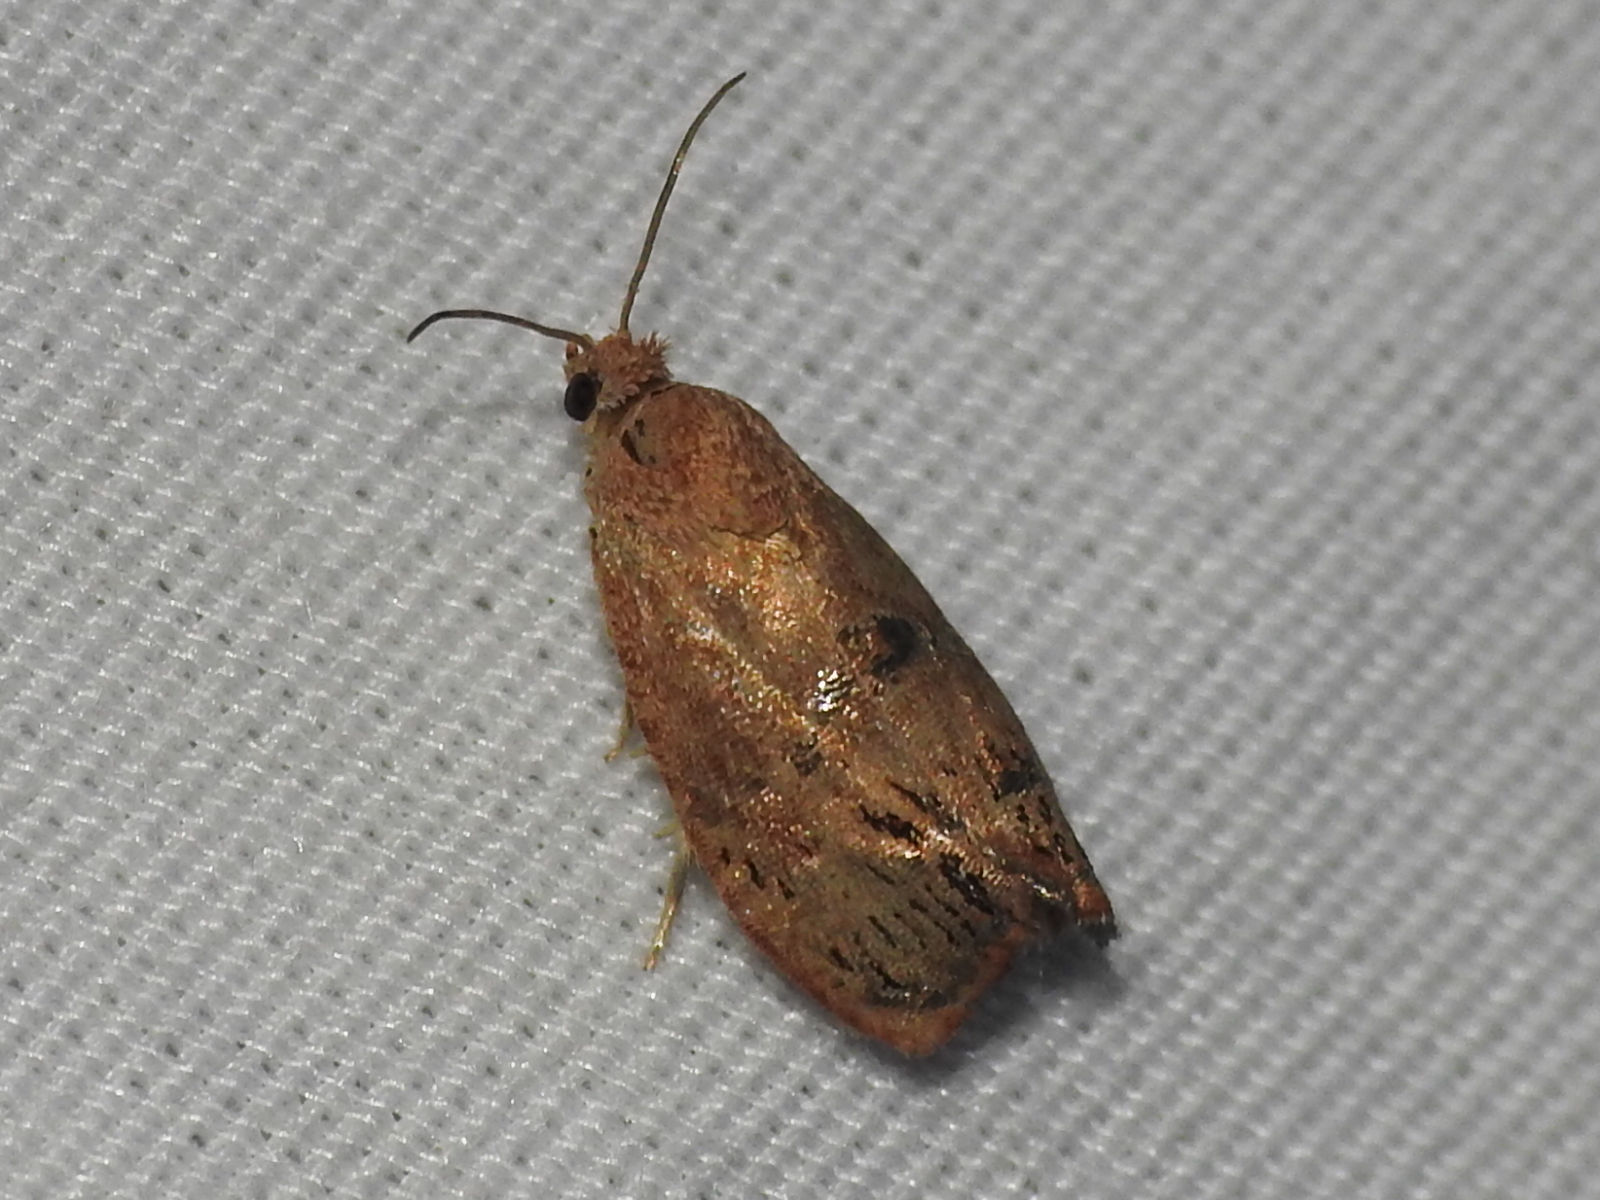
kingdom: Animalia
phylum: Arthropoda
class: Insecta
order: Lepidoptera
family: Tortricidae
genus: Cydia
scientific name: Cydia latiferreana
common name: Filbertworm moth
